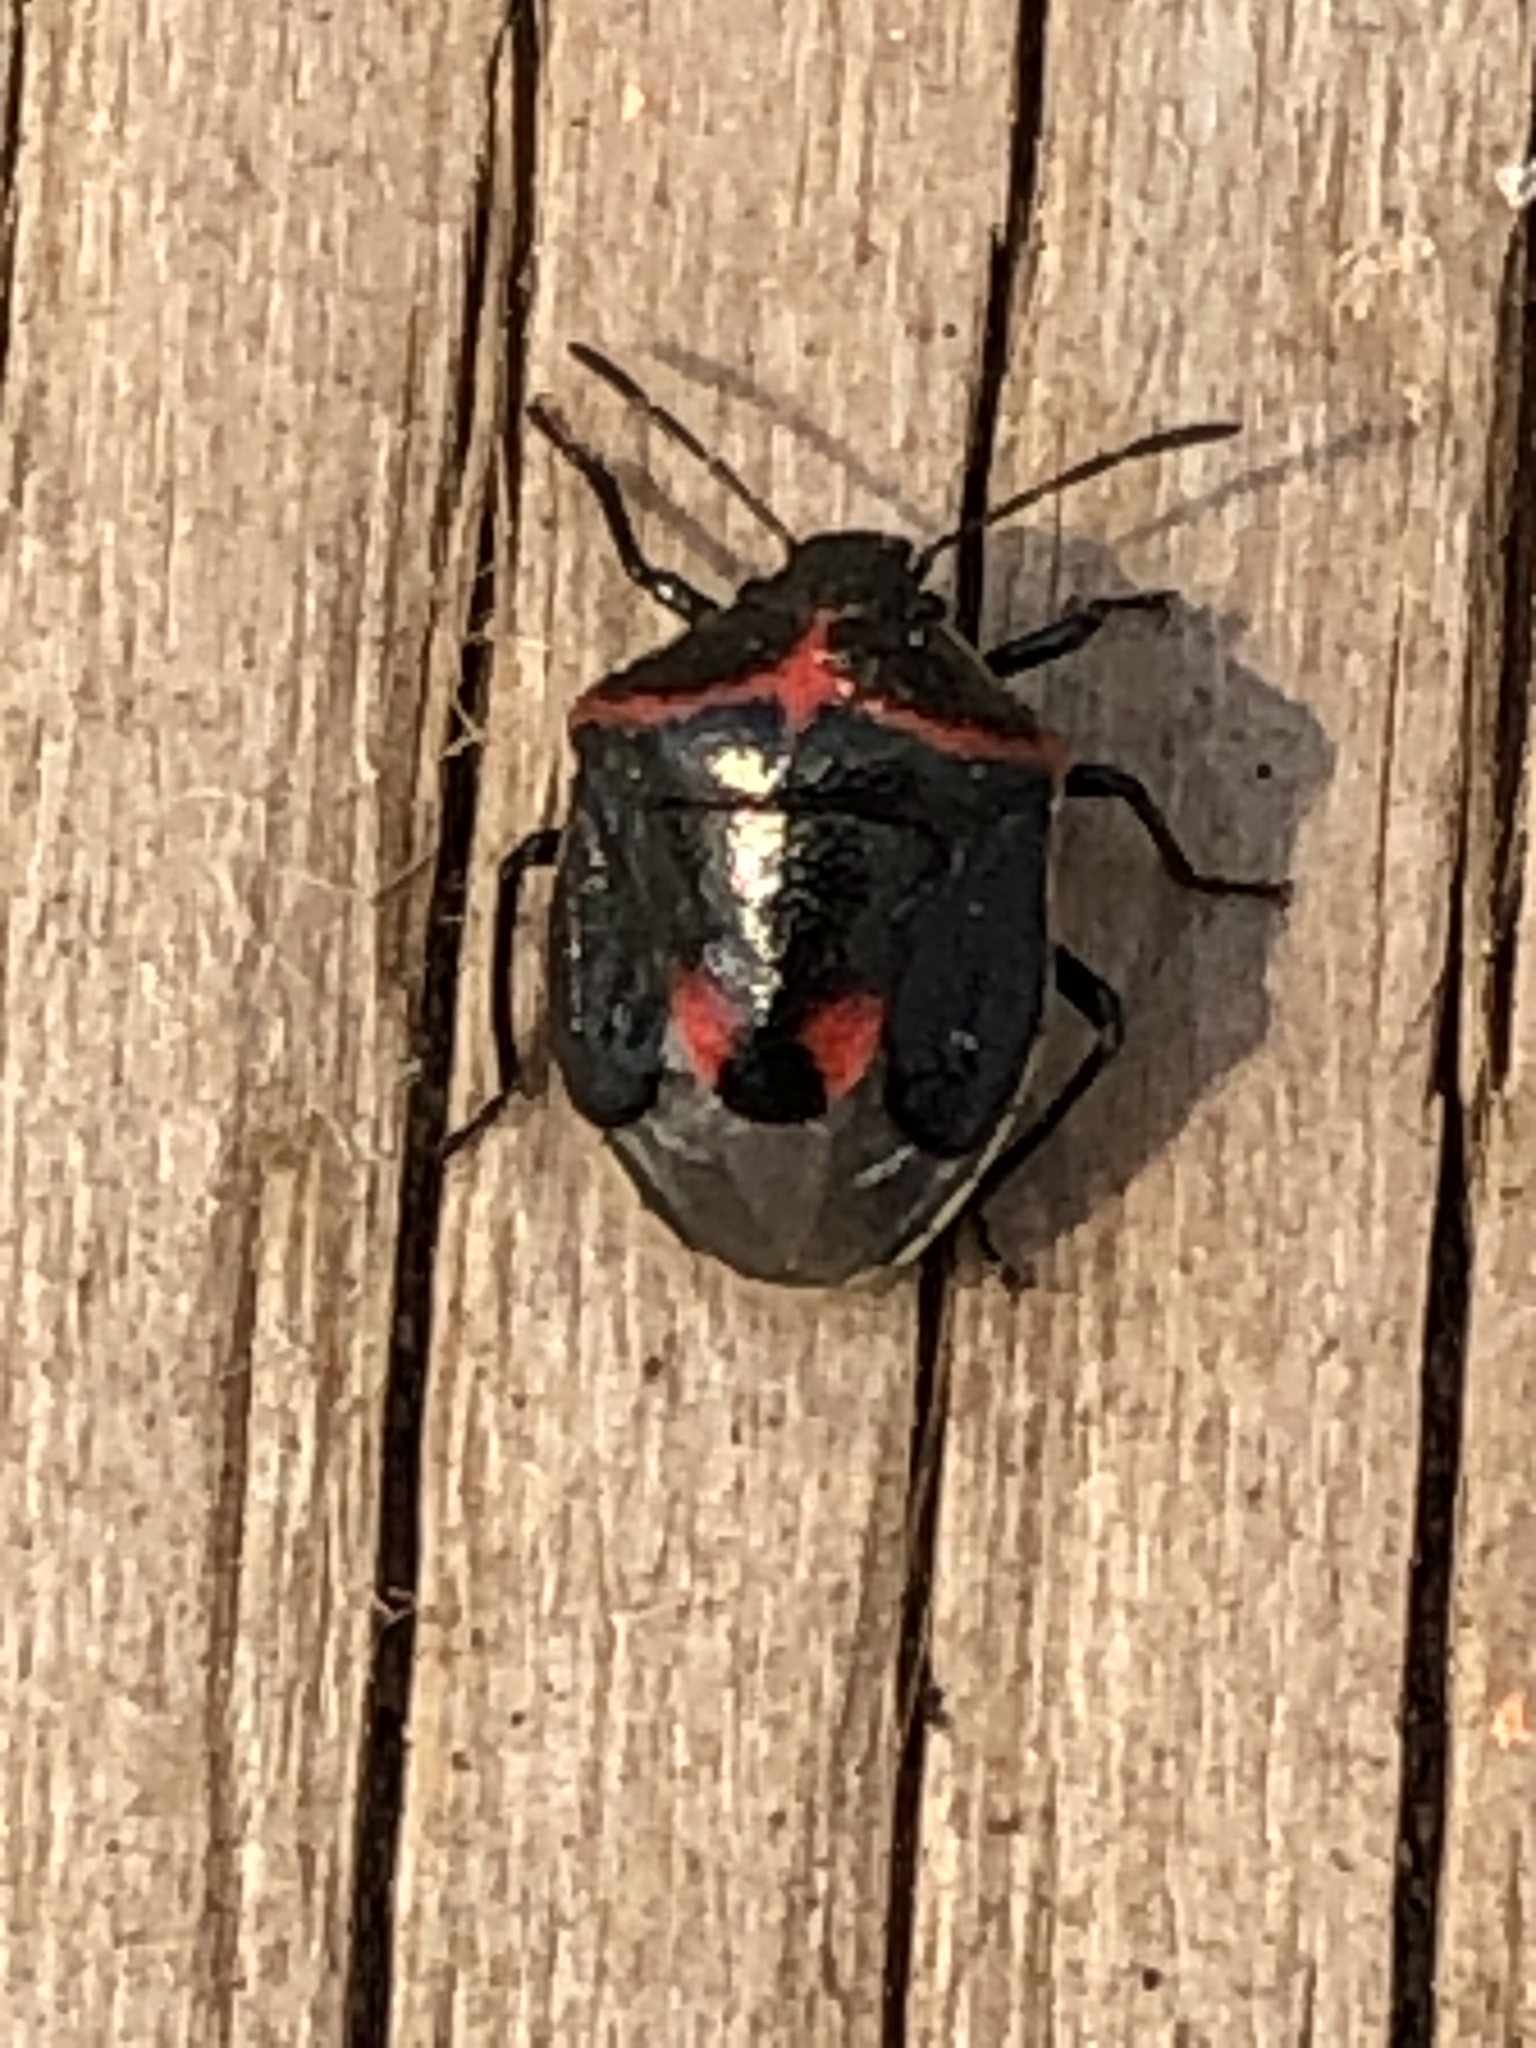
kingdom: Animalia
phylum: Arthropoda
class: Insecta
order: Hemiptera
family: Pentatomidae
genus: Cosmopepla
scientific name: Cosmopepla lintneriana
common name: Twice-stabbed stink bug
